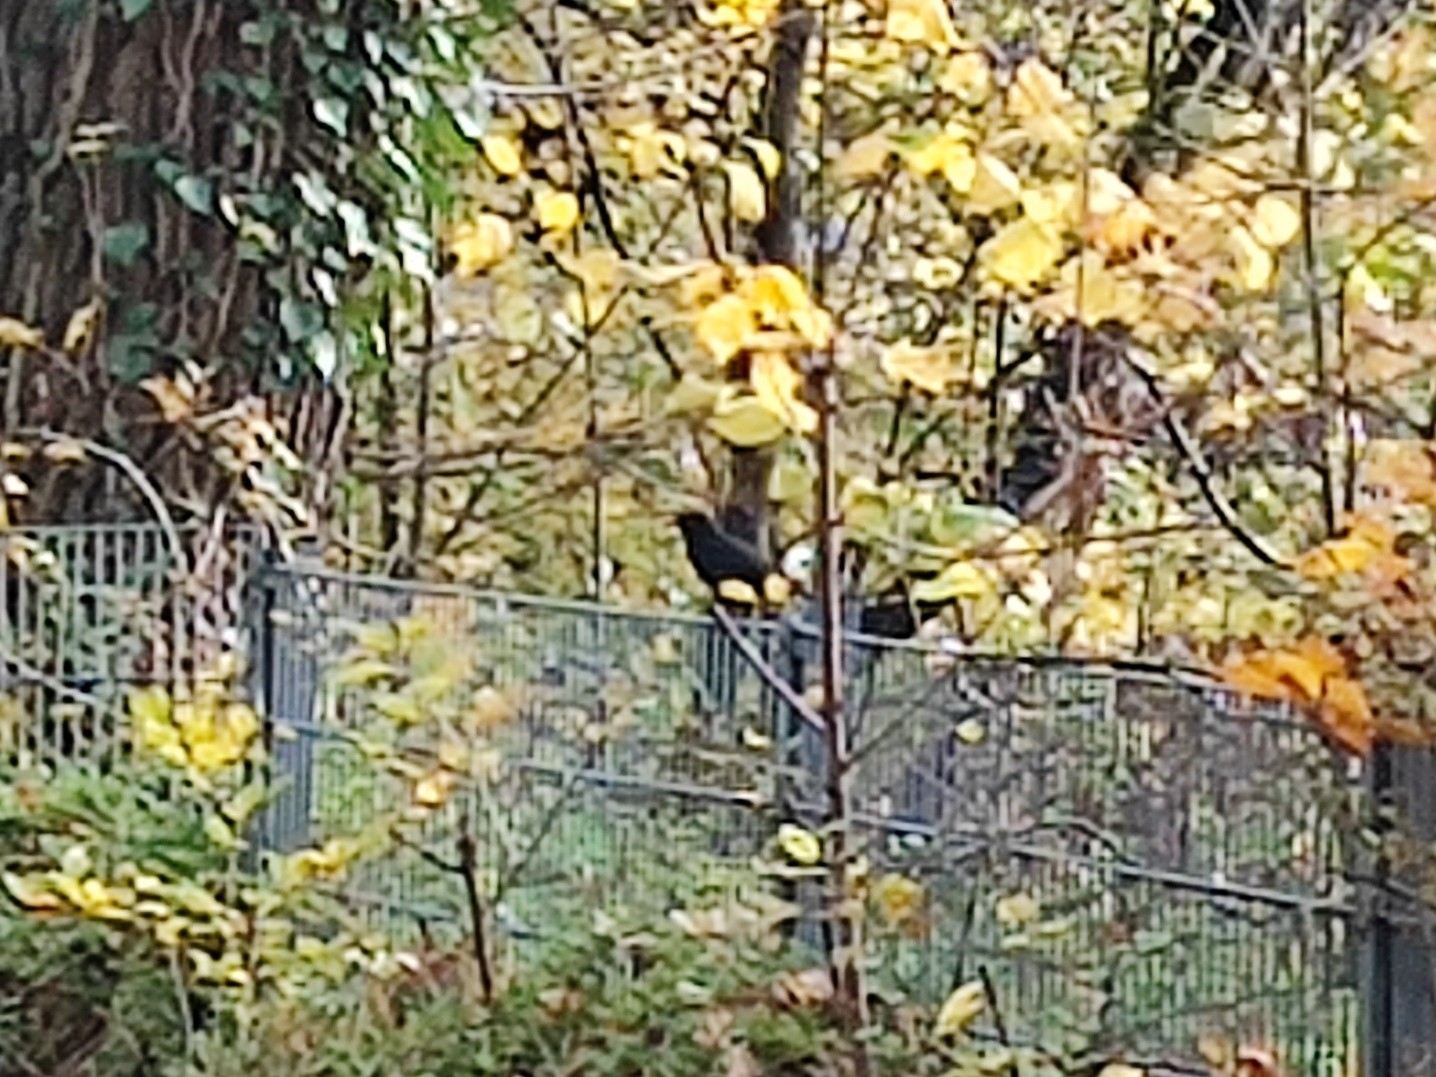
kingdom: Animalia
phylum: Chordata
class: Aves
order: Passeriformes
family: Turdidae
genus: Turdus
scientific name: Turdus merula
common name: Common blackbird
